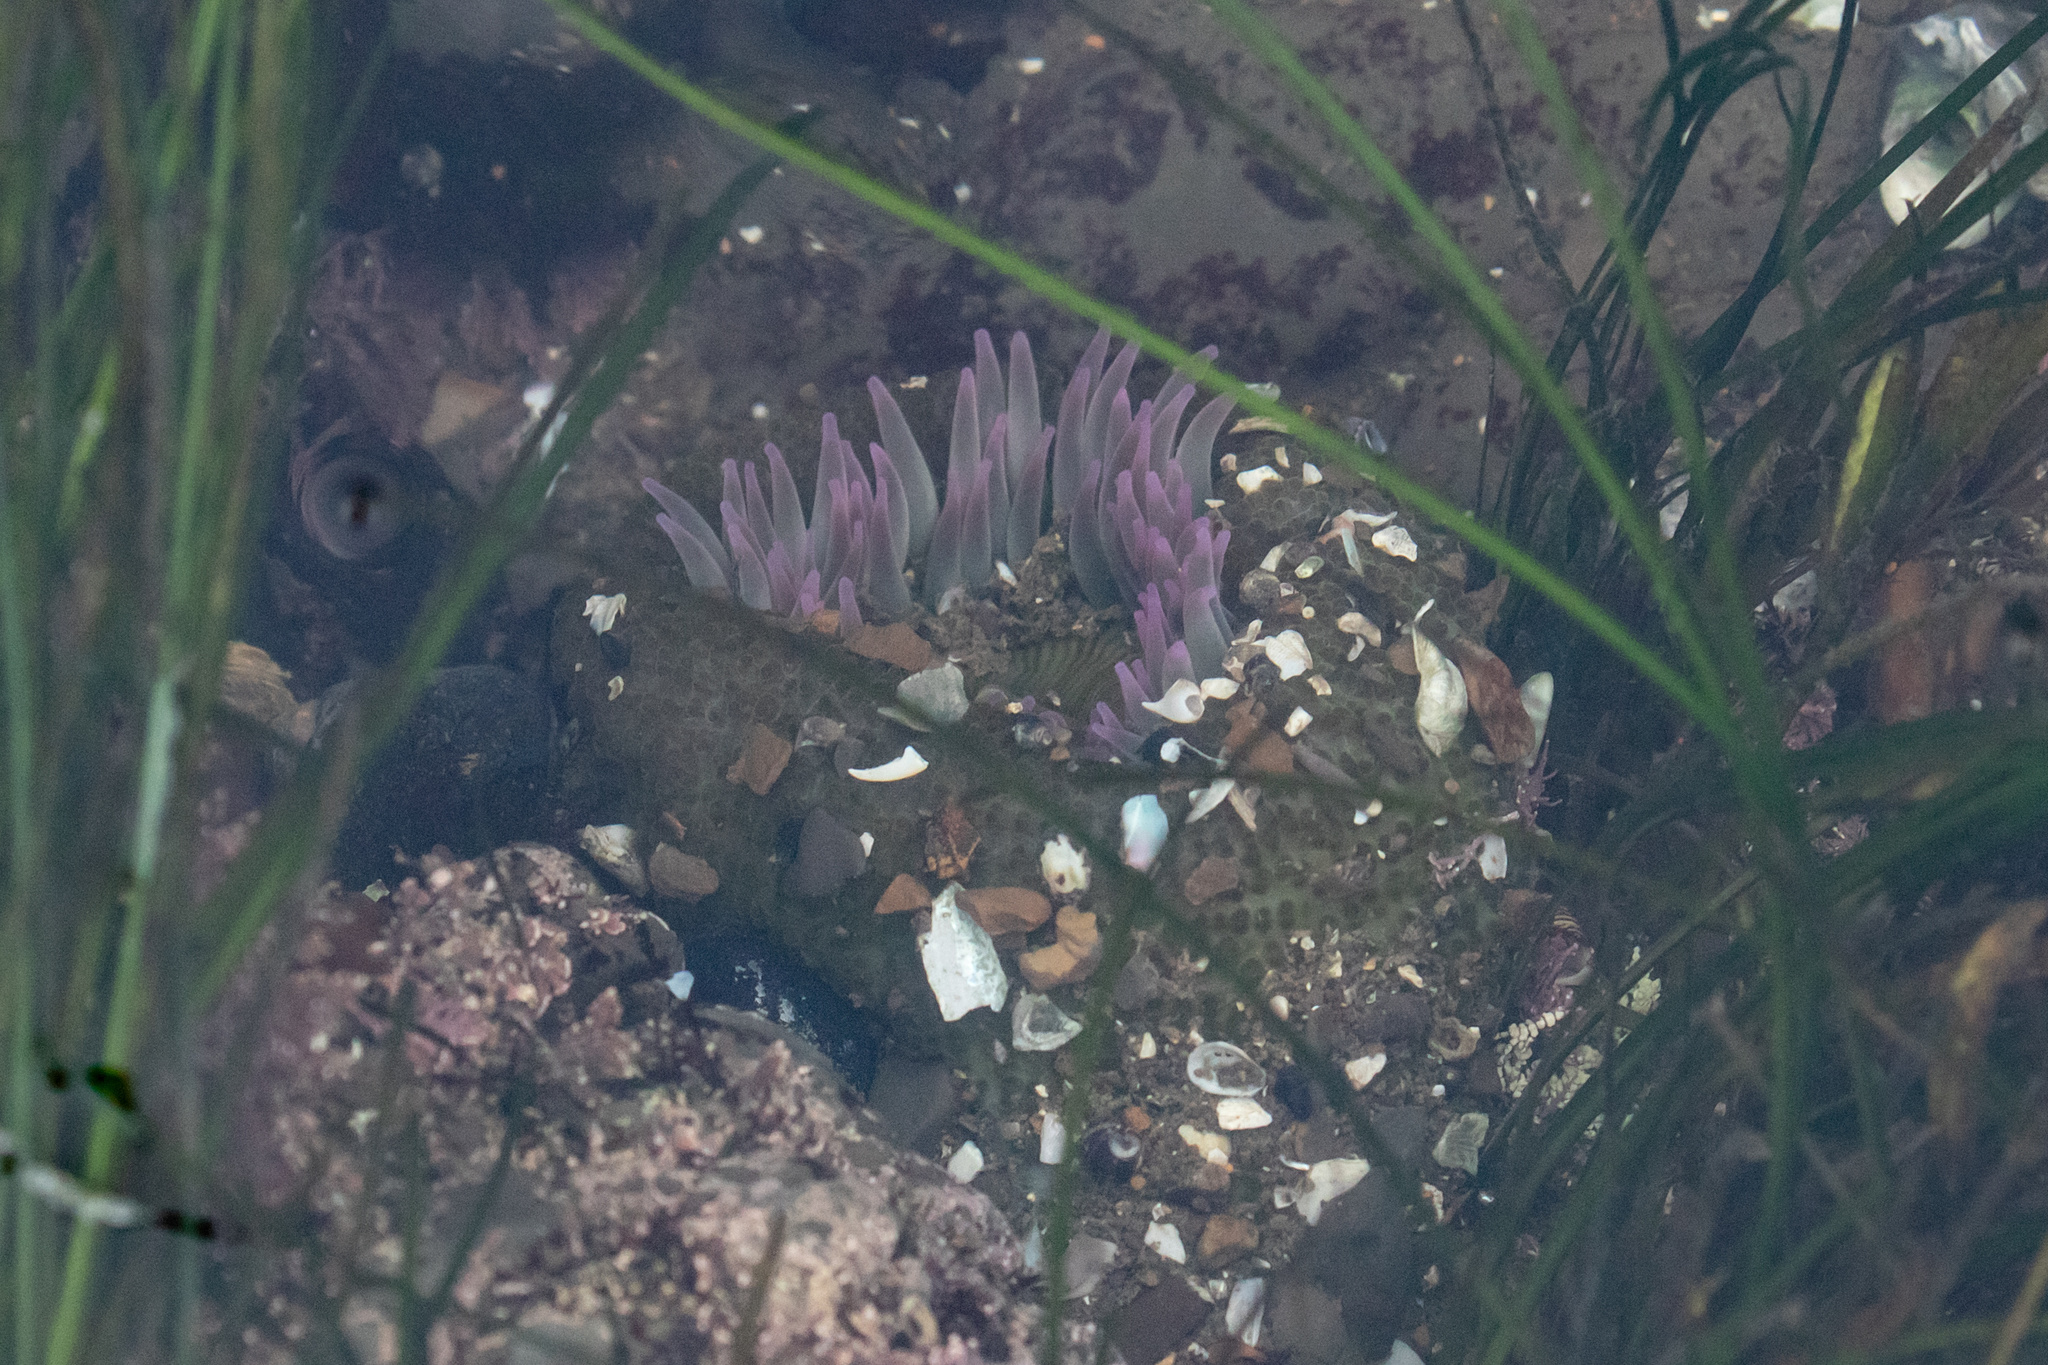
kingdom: Animalia
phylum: Cnidaria
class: Anthozoa
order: Actiniaria
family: Actiniidae
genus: Anthopleura
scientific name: Anthopleura elegantissima
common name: Clonal anemone
